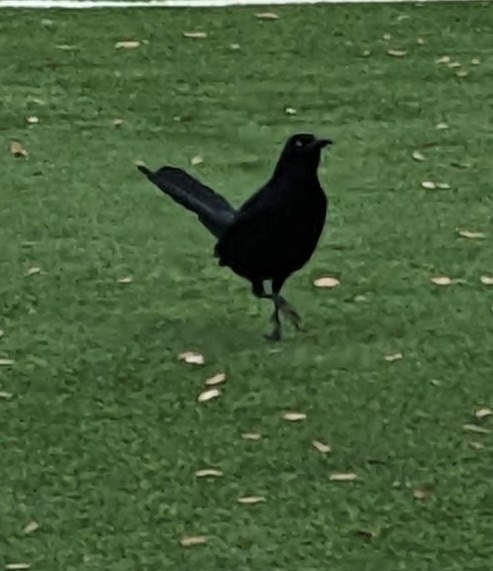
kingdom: Animalia
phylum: Chordata
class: Aves
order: Passeriformes
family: Icteridae
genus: Quiscalus
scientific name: Quiscalus mexicanus
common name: Great-tailed grackle
